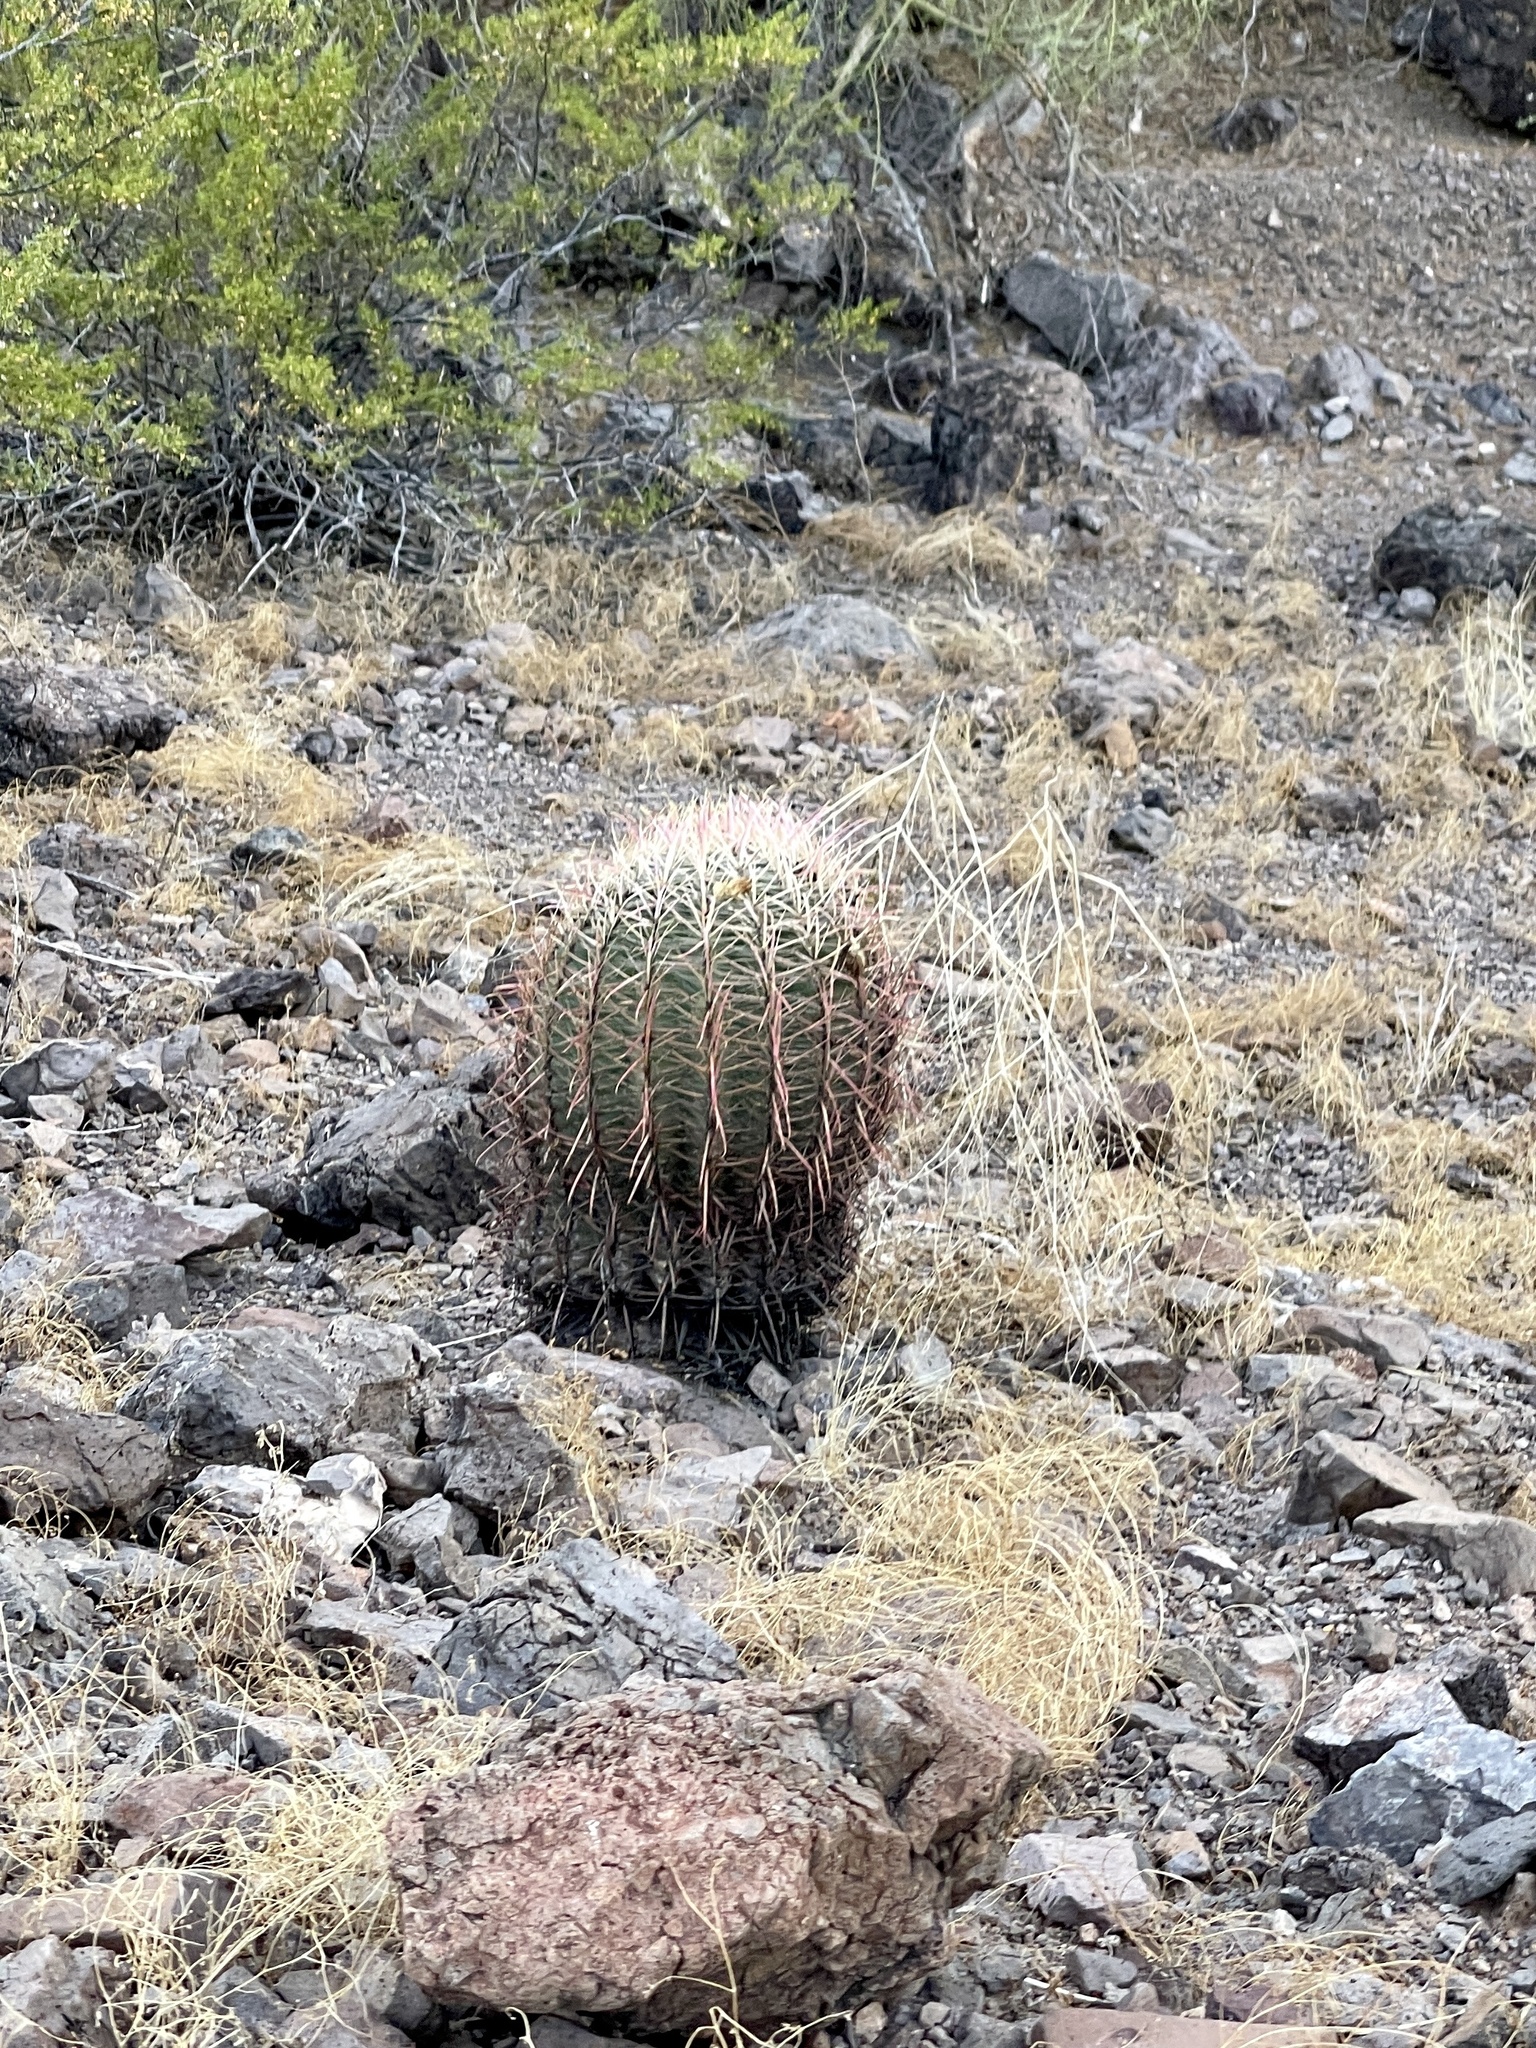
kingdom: Plantae
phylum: Tracheophyta
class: Magnoliopsida
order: Caryophyllales
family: Cactaceae
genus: Ferocactus
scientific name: Ferocactus cylindraceus
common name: California barrel cactus
